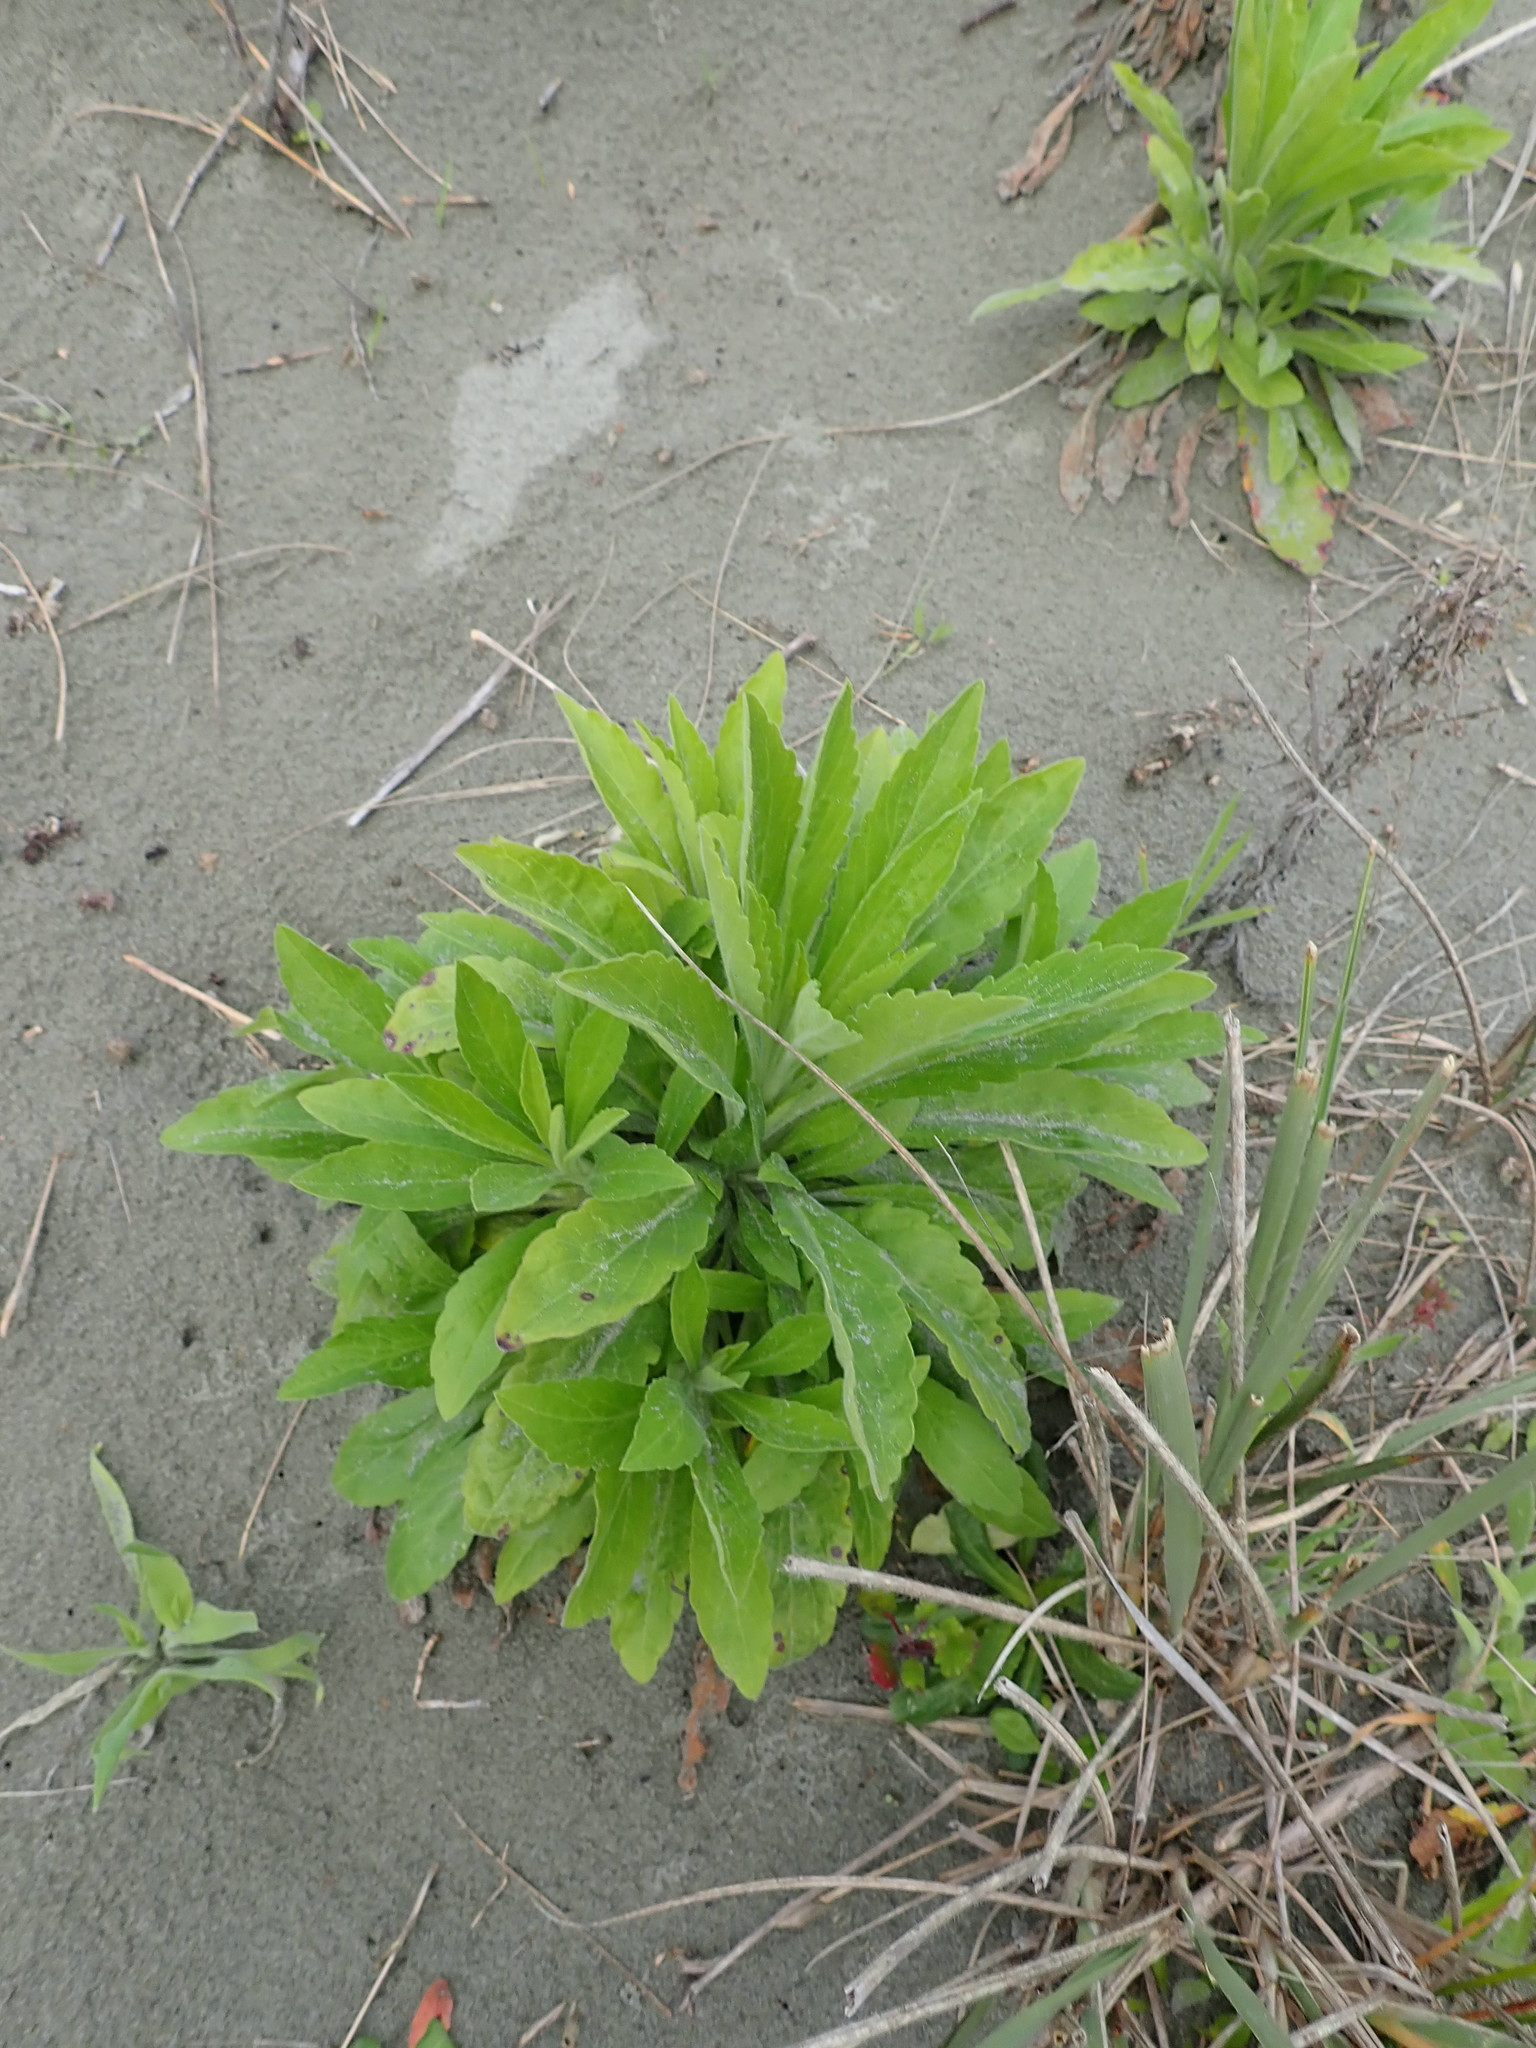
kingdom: Plantae
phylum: Tracheophyta
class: Magnoliopsida
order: Asterales
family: Asteraceae
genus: Erigeron
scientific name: Erigeron canadensis
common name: Canadian fleabane
